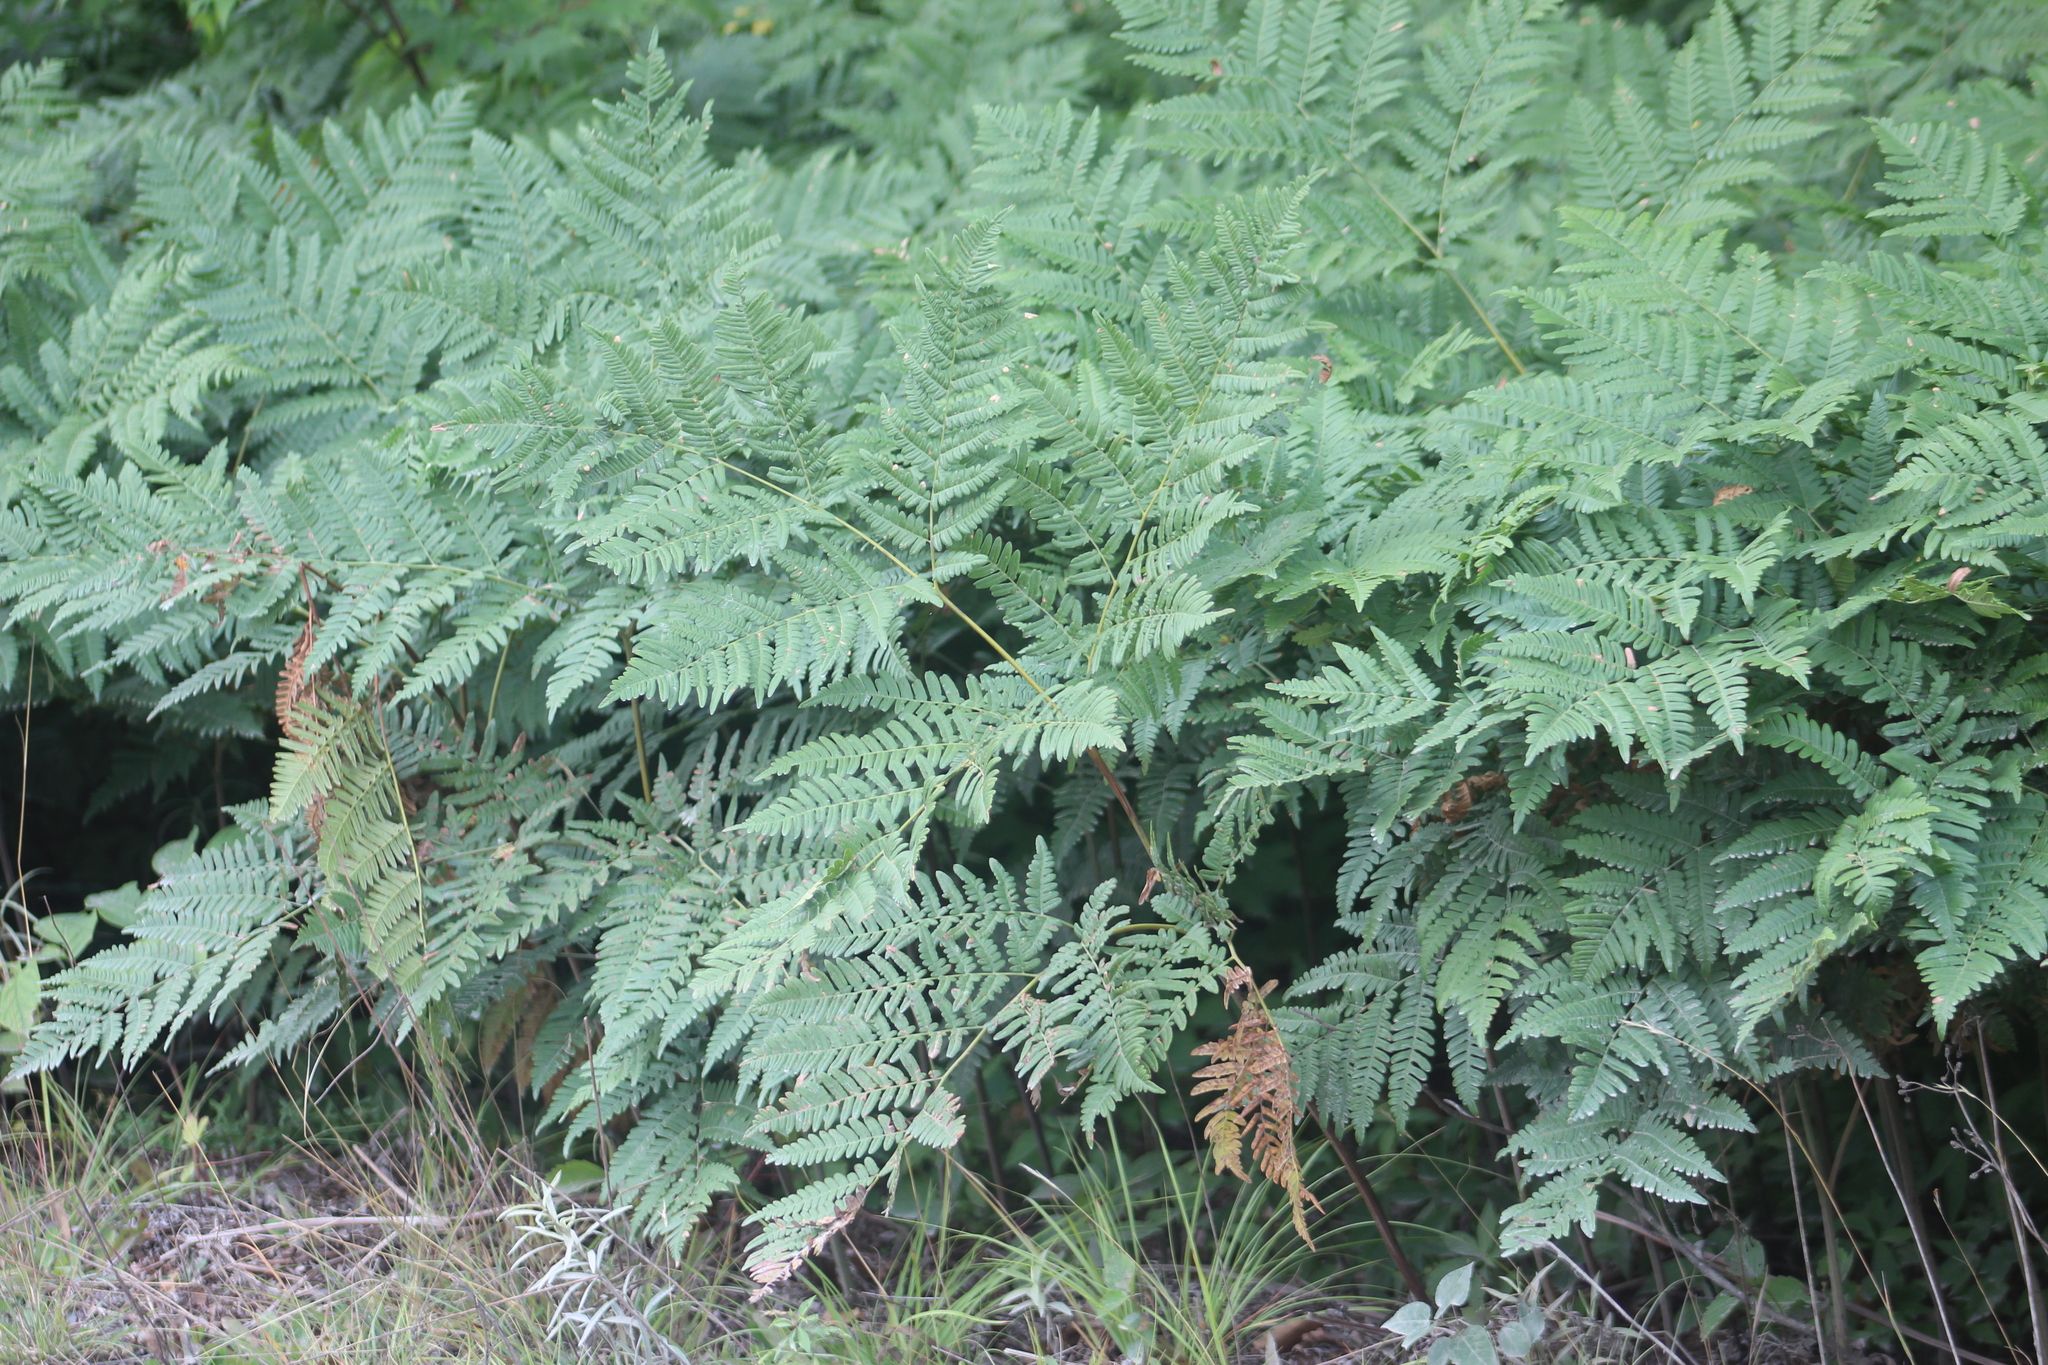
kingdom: Plantae
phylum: Tracheophyta
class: Polypodiopsida
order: Polypodiales
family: Dennstaedtiaceae
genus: Pteridium
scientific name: Pteridium aquilinum
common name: Bracken
